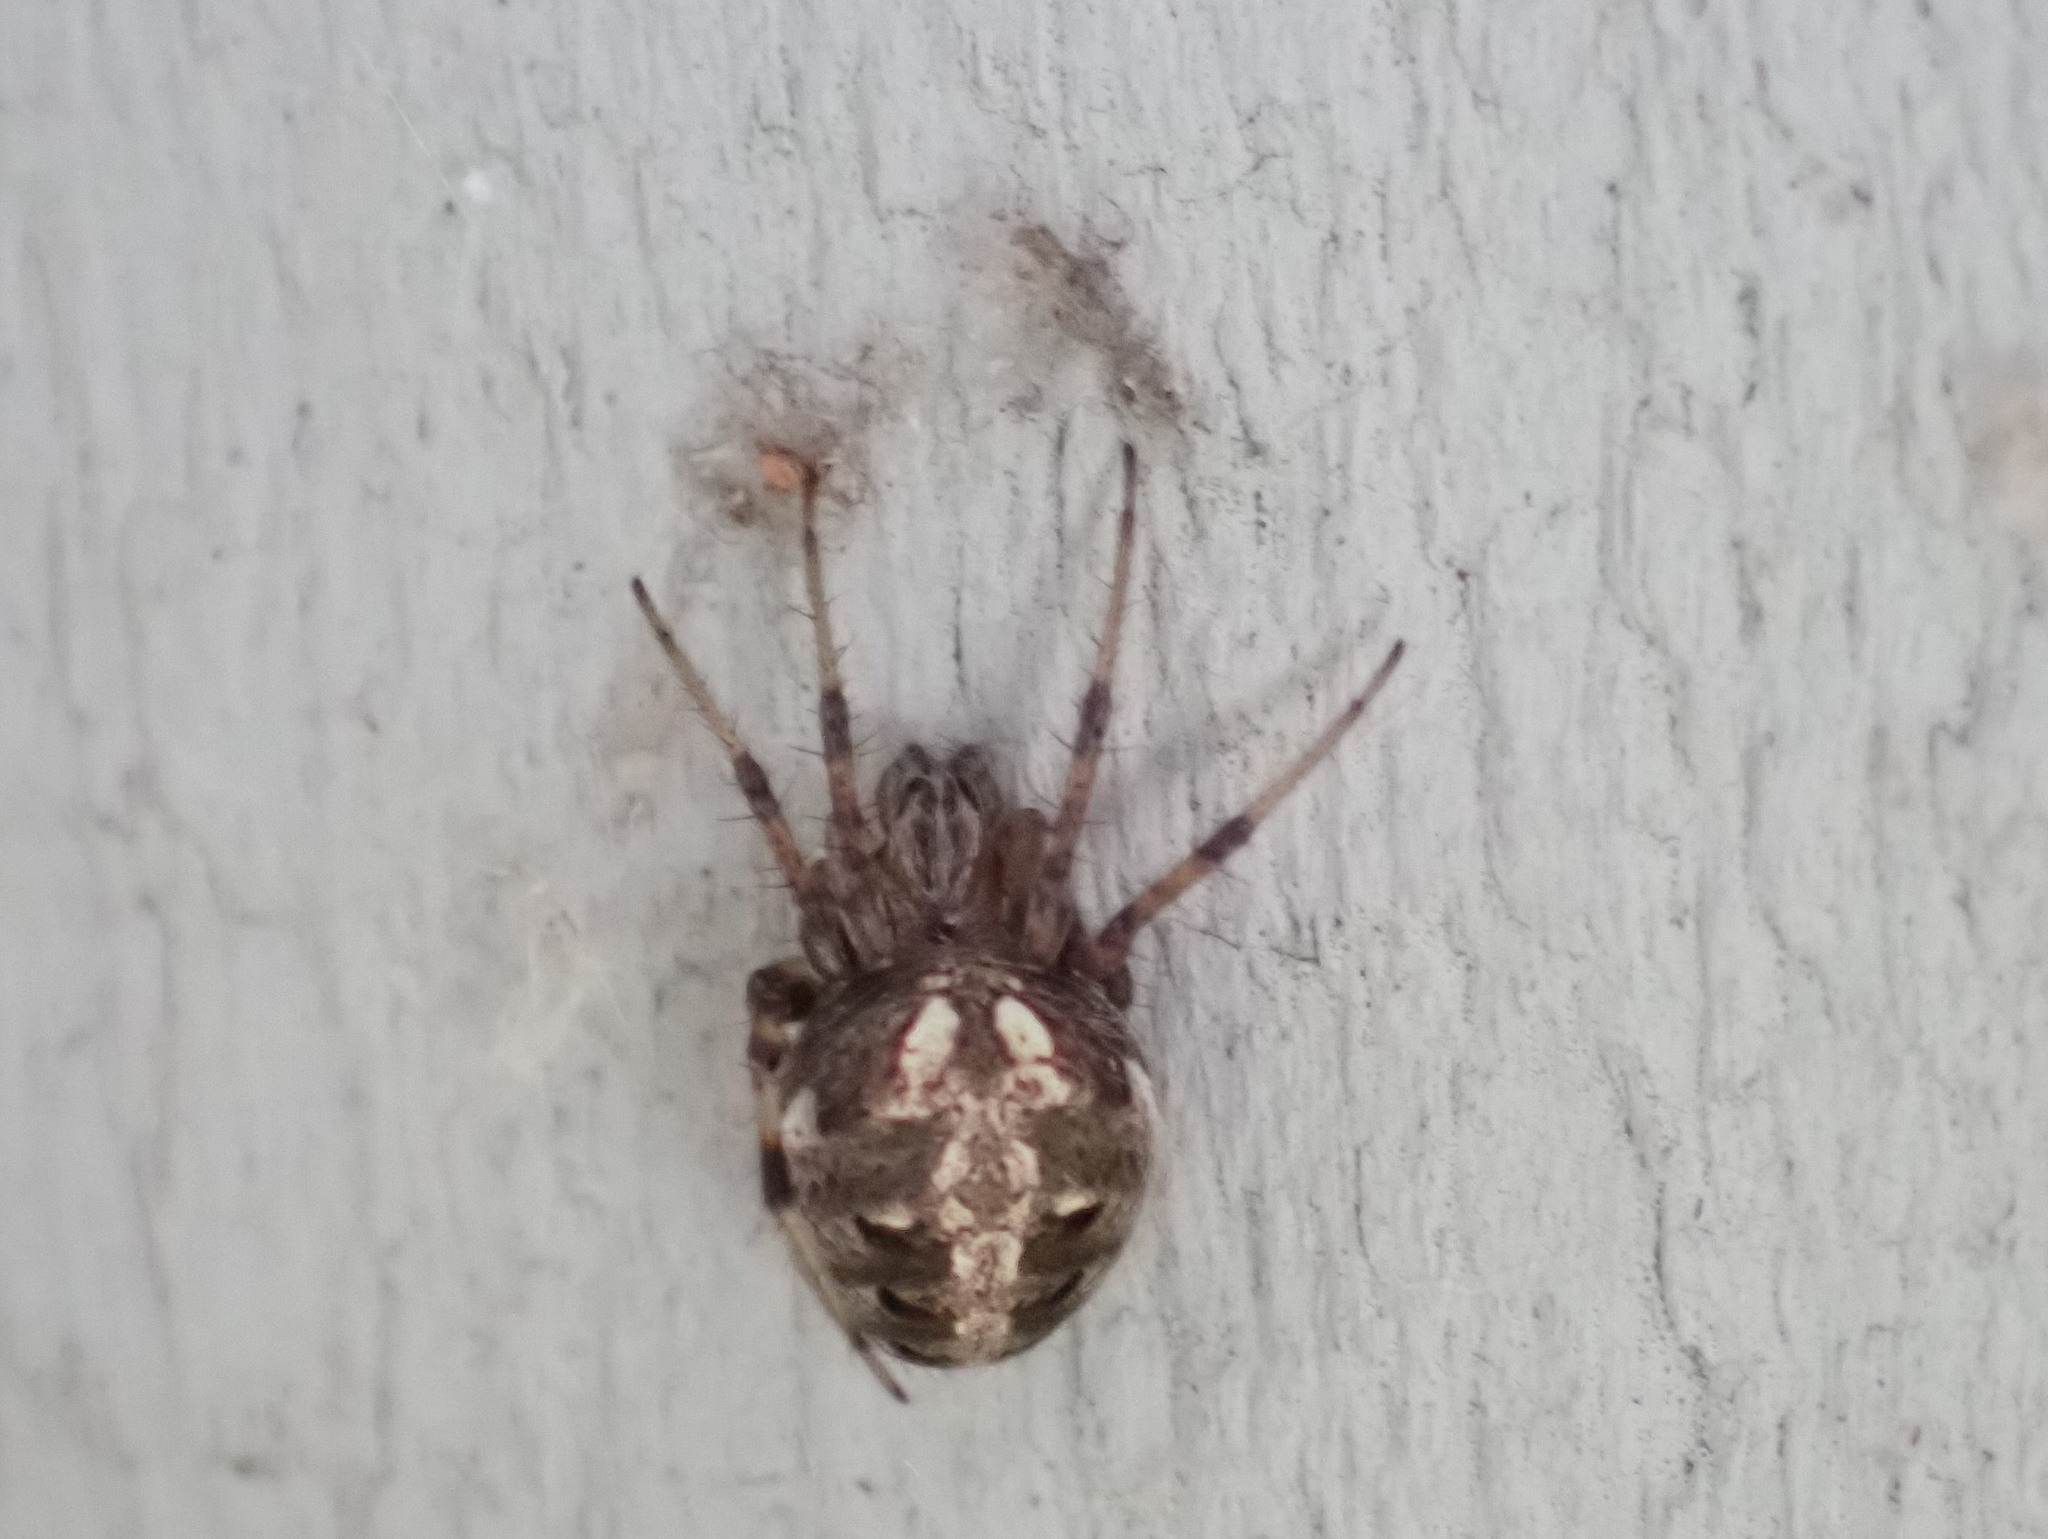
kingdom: Animalia
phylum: Arthropoda
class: Arachnida
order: Araneae
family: Araneidae
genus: Neoscona
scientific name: Neoscona arabesca
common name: Orb weavers
